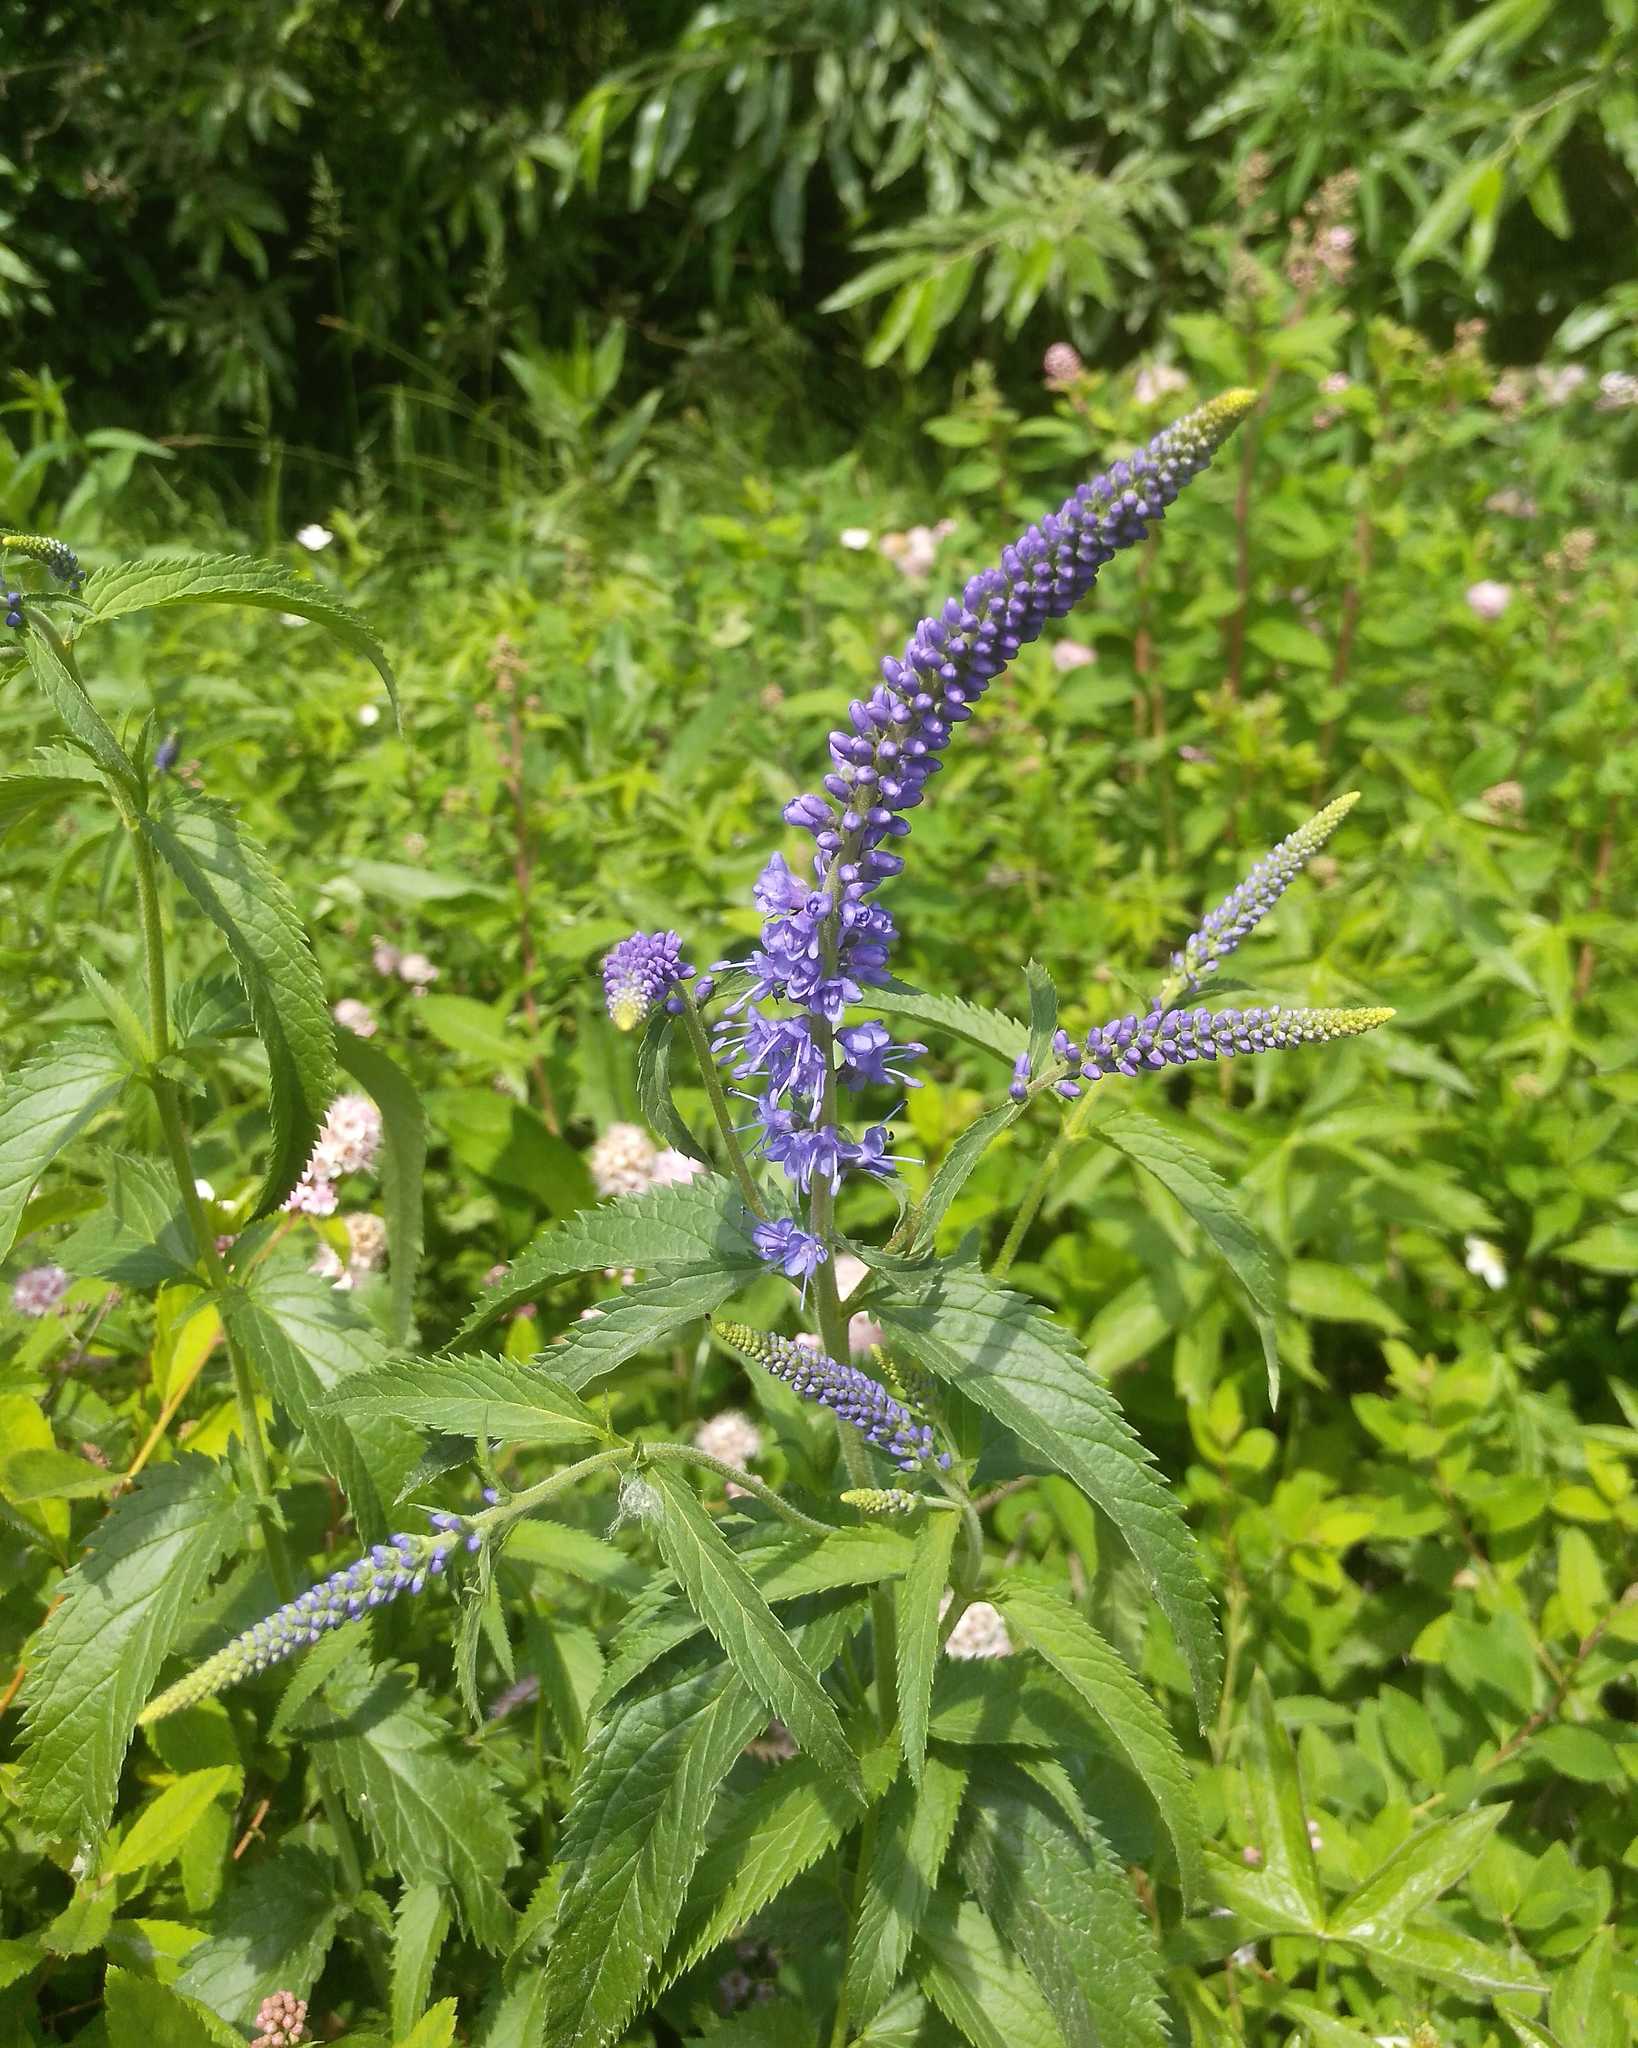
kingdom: Plantae
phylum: Tracheophyta
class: Magnoliopsida
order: Lamiales
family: Plantaginaceae
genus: Veronica
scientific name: Veronica longifolia
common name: Garden speedwell
